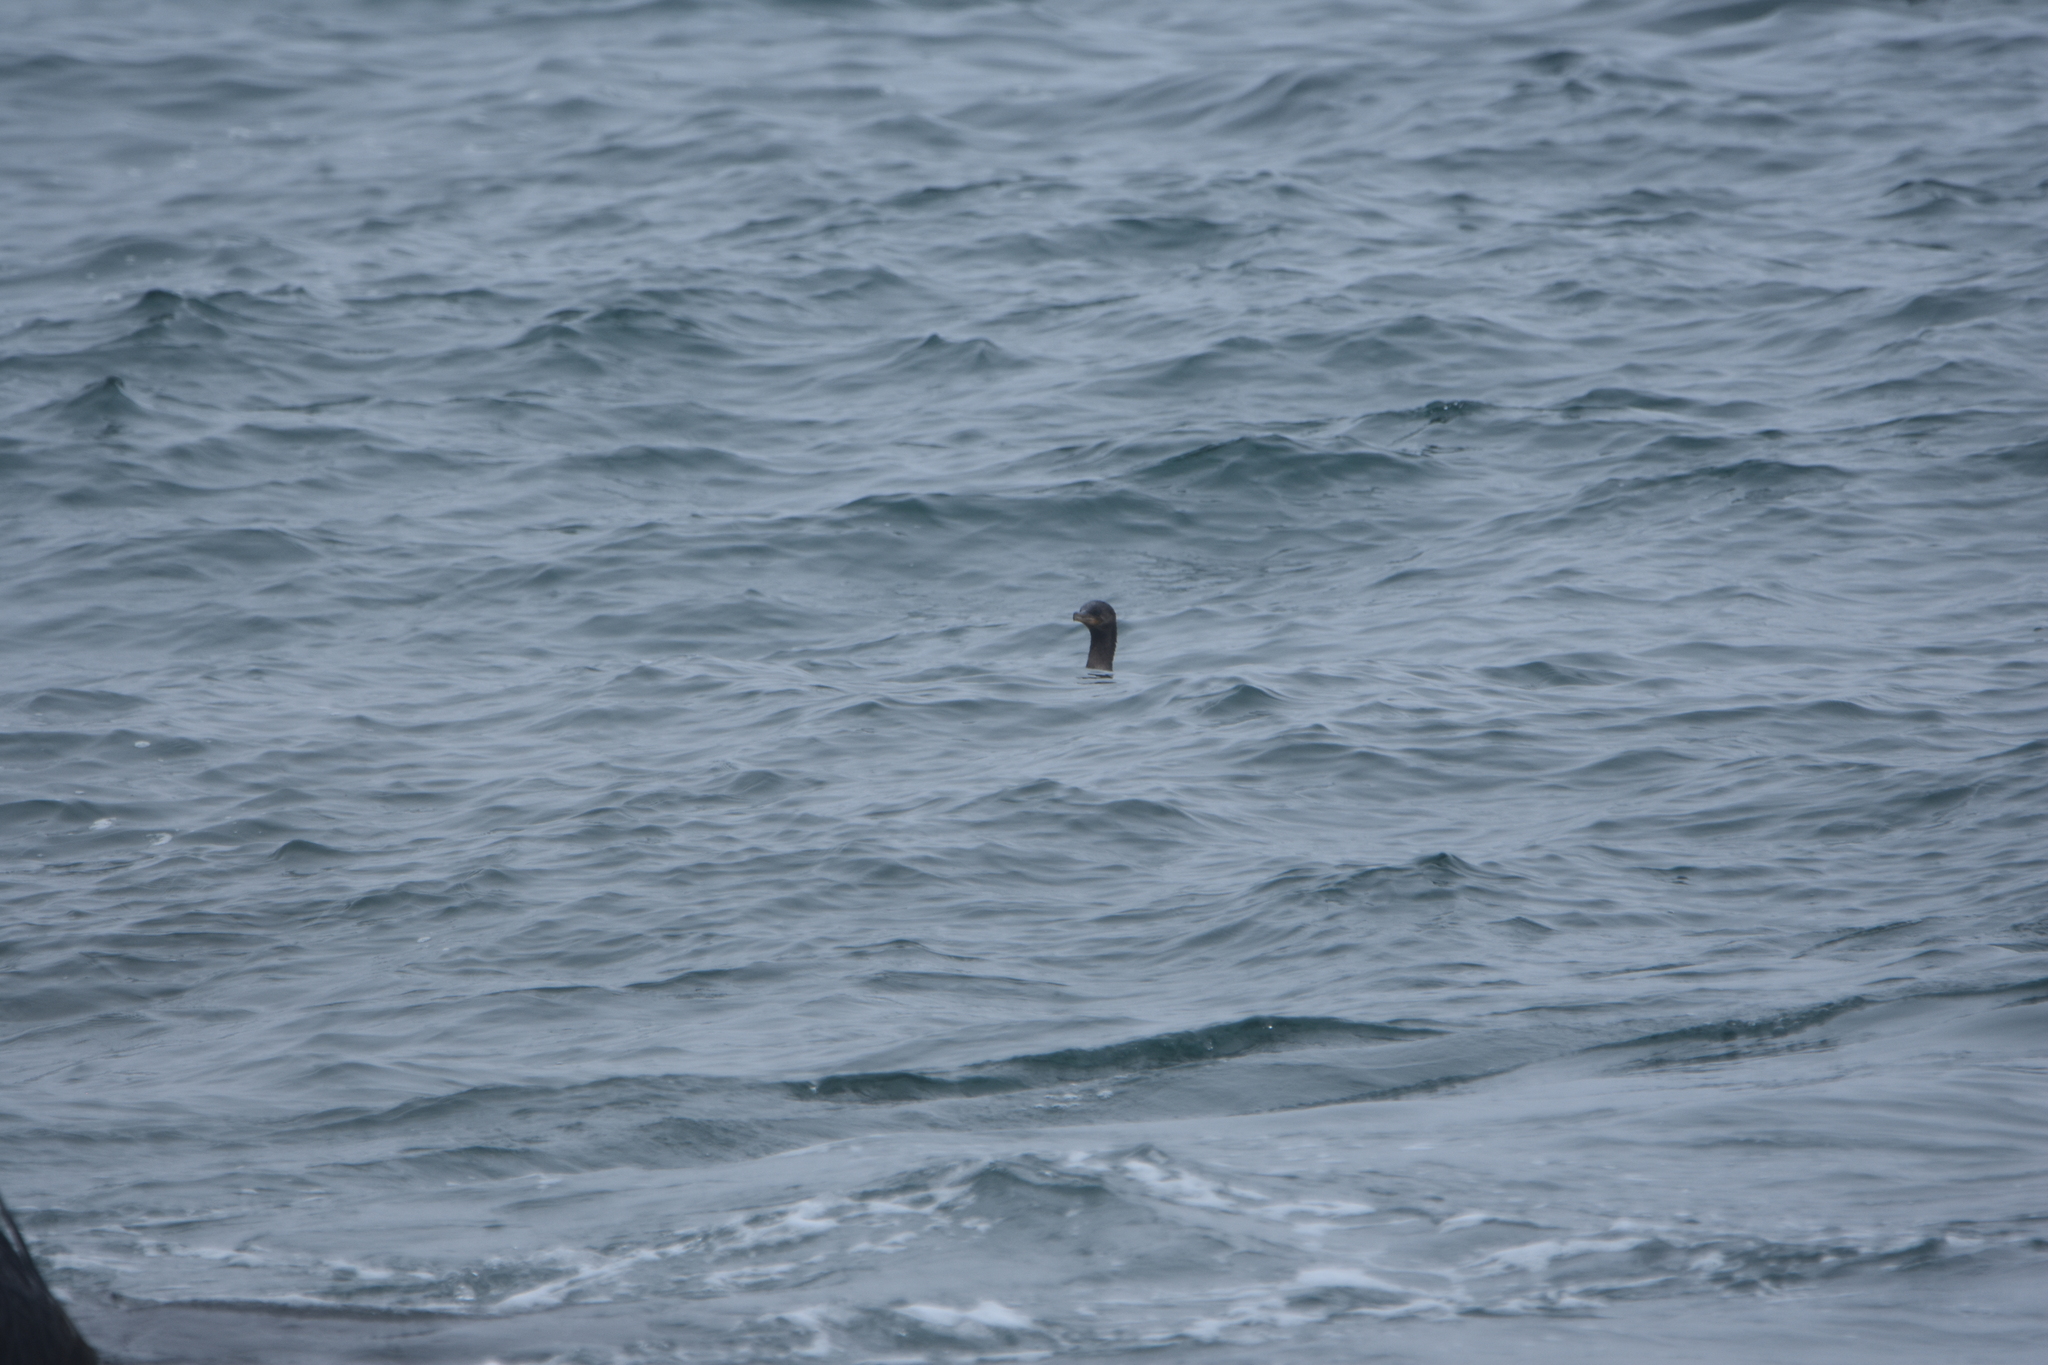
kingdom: Animalia
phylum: Chordata
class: Aves
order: Suliformes
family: Phalacrocoracidae
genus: Phalacrocorax
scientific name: Phalacrocorax brasilianus
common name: Neotropic cormorant
